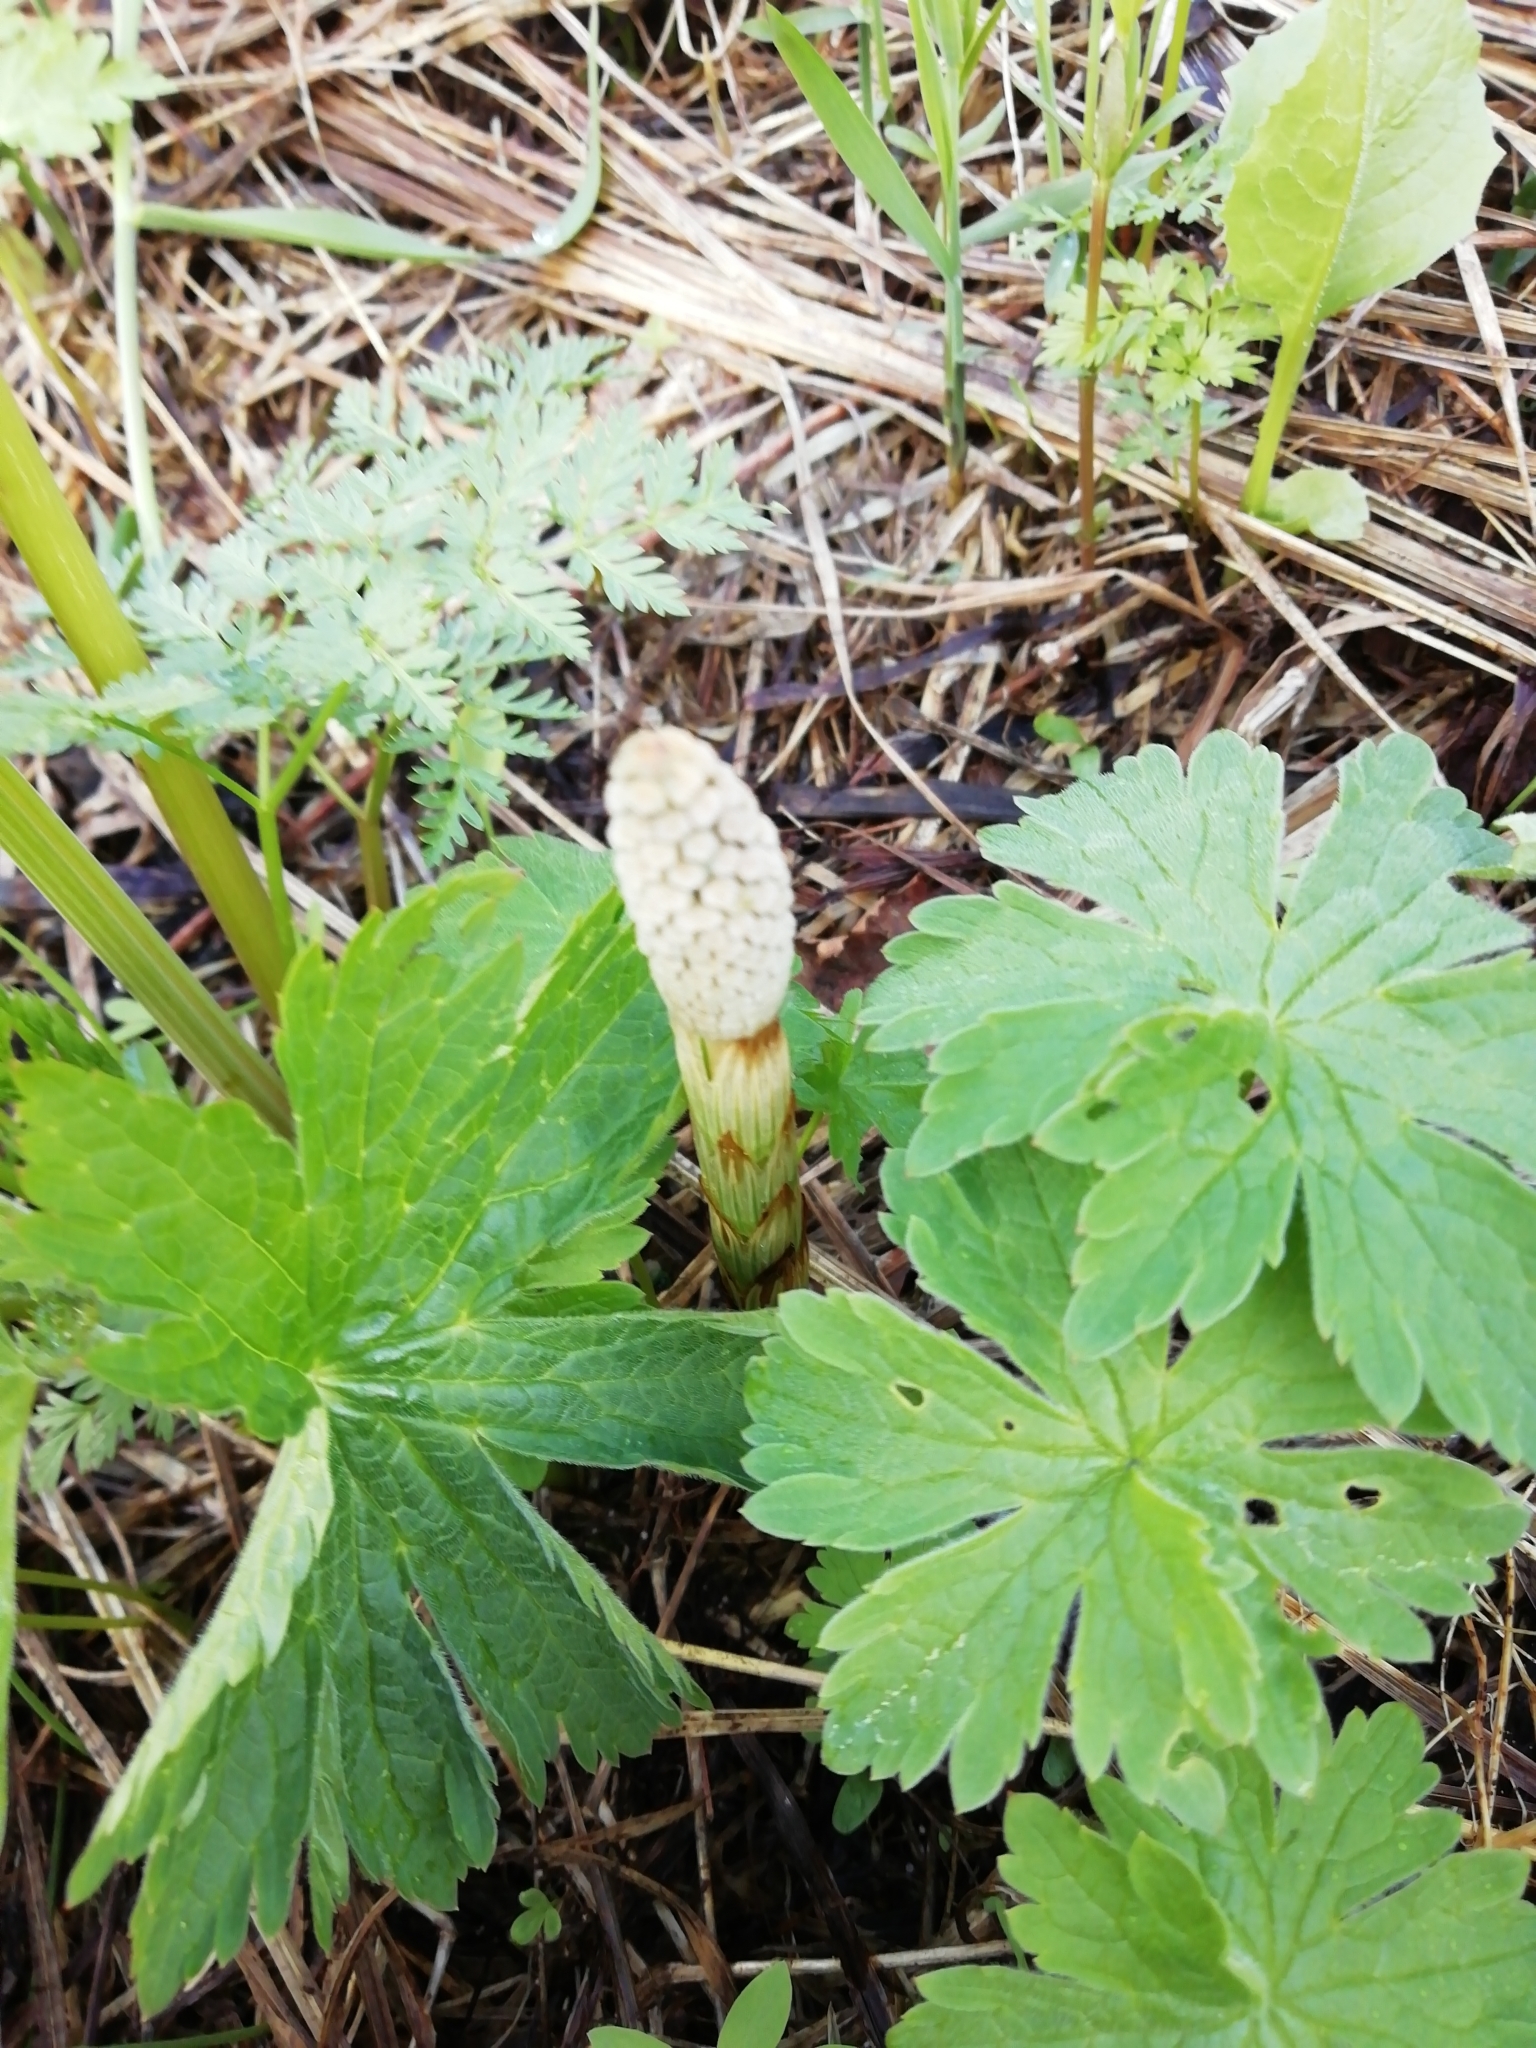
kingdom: Plantae
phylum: Tracheophyta
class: Polypodiopsida
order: Equisetales
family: Equisetaceae
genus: Equisetum
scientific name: Equisetum sylvaticum
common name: Wood horsetail
